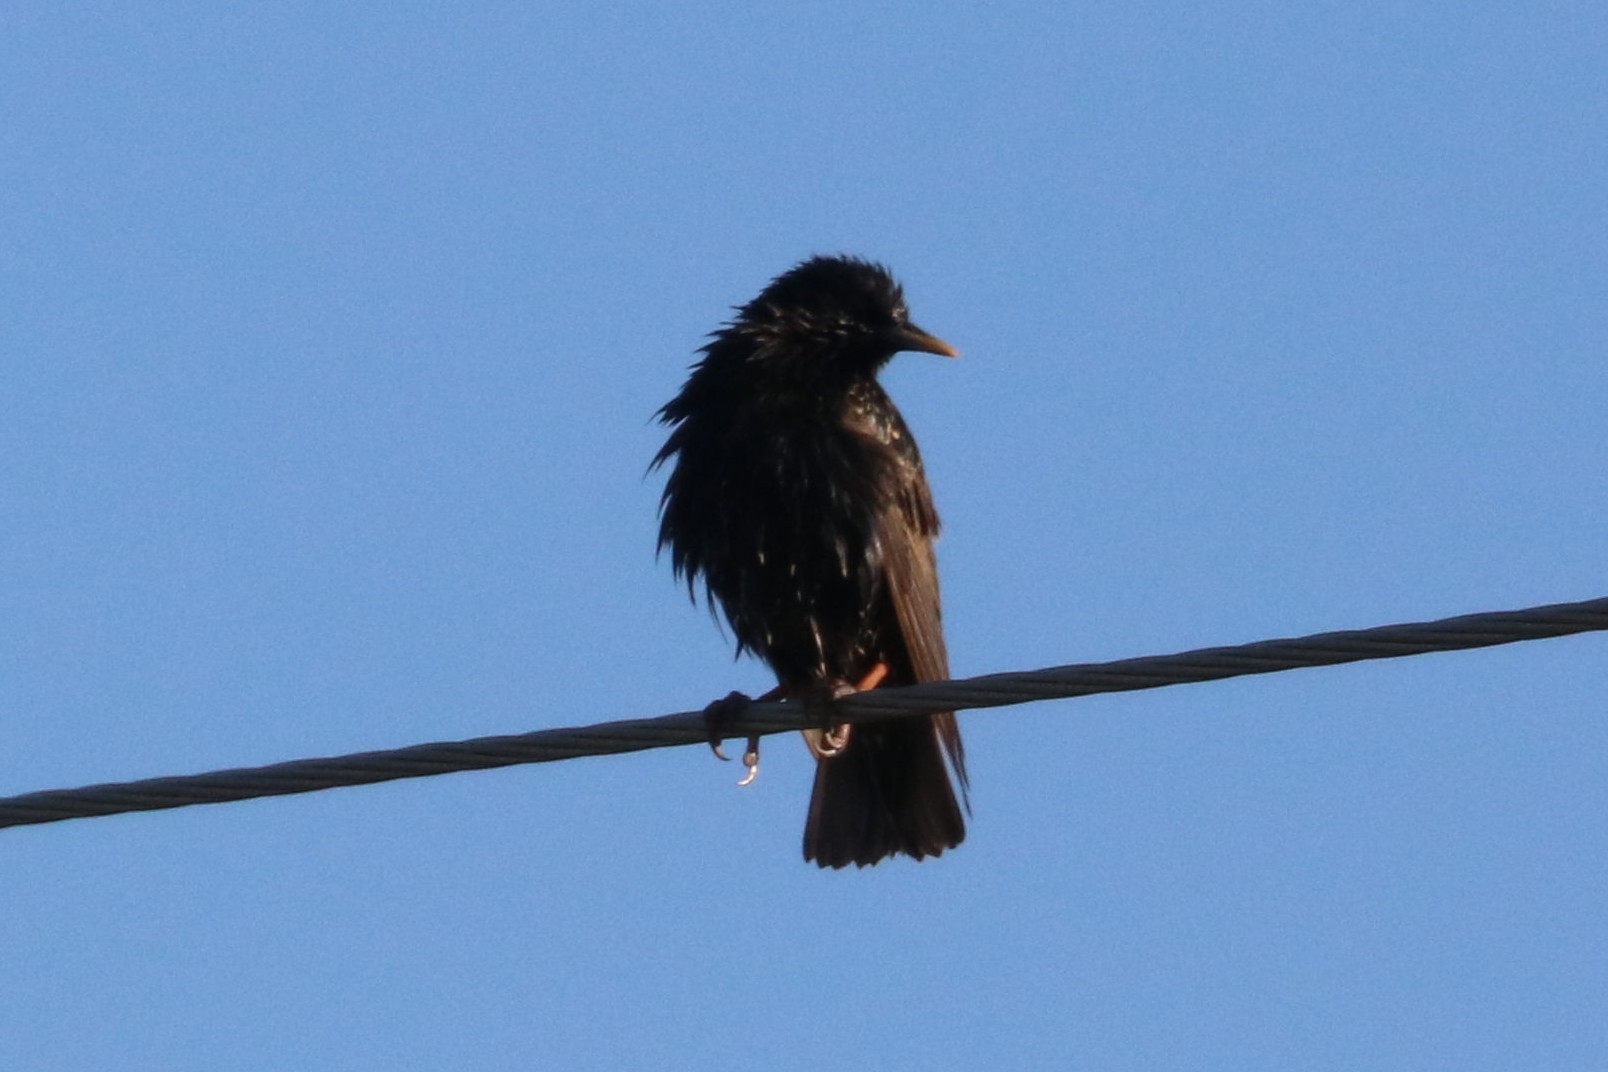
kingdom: Animalia
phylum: Chordata
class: Aves
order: Passeriformes
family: Sturnidae
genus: Sturnus
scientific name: Sturnus vulgaris
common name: Common starling
